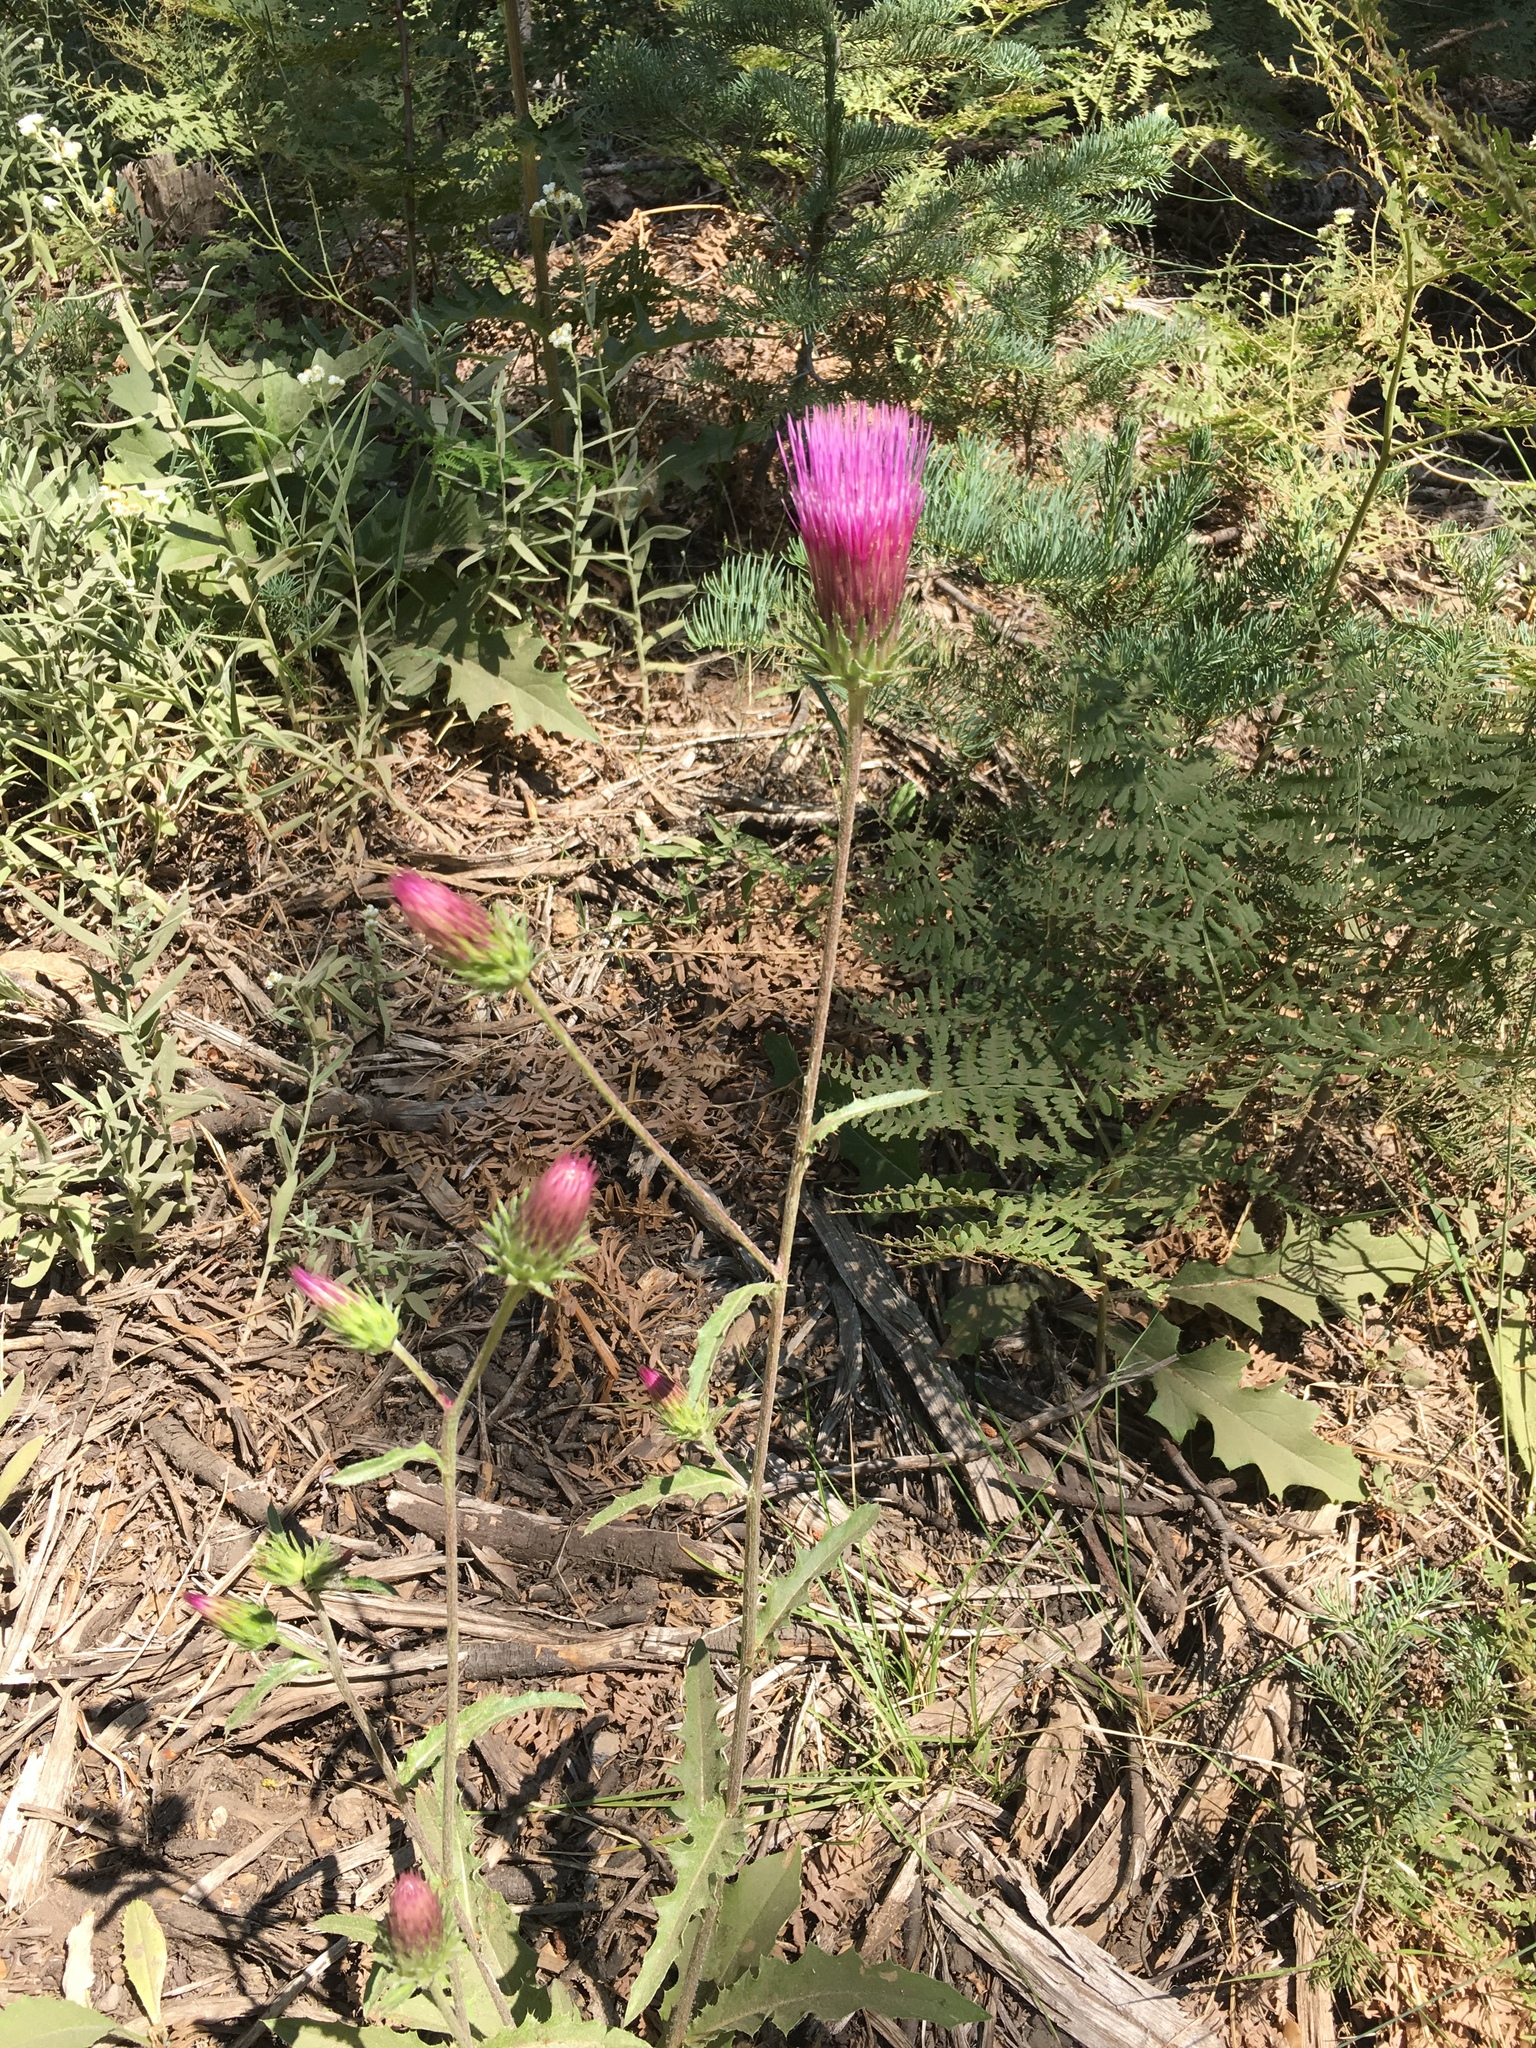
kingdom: Plantae
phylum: Tracheophyta
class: Magnoliopsida
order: Asterales
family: Asteraceae
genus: Cirsium
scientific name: Cirsium andersonii
